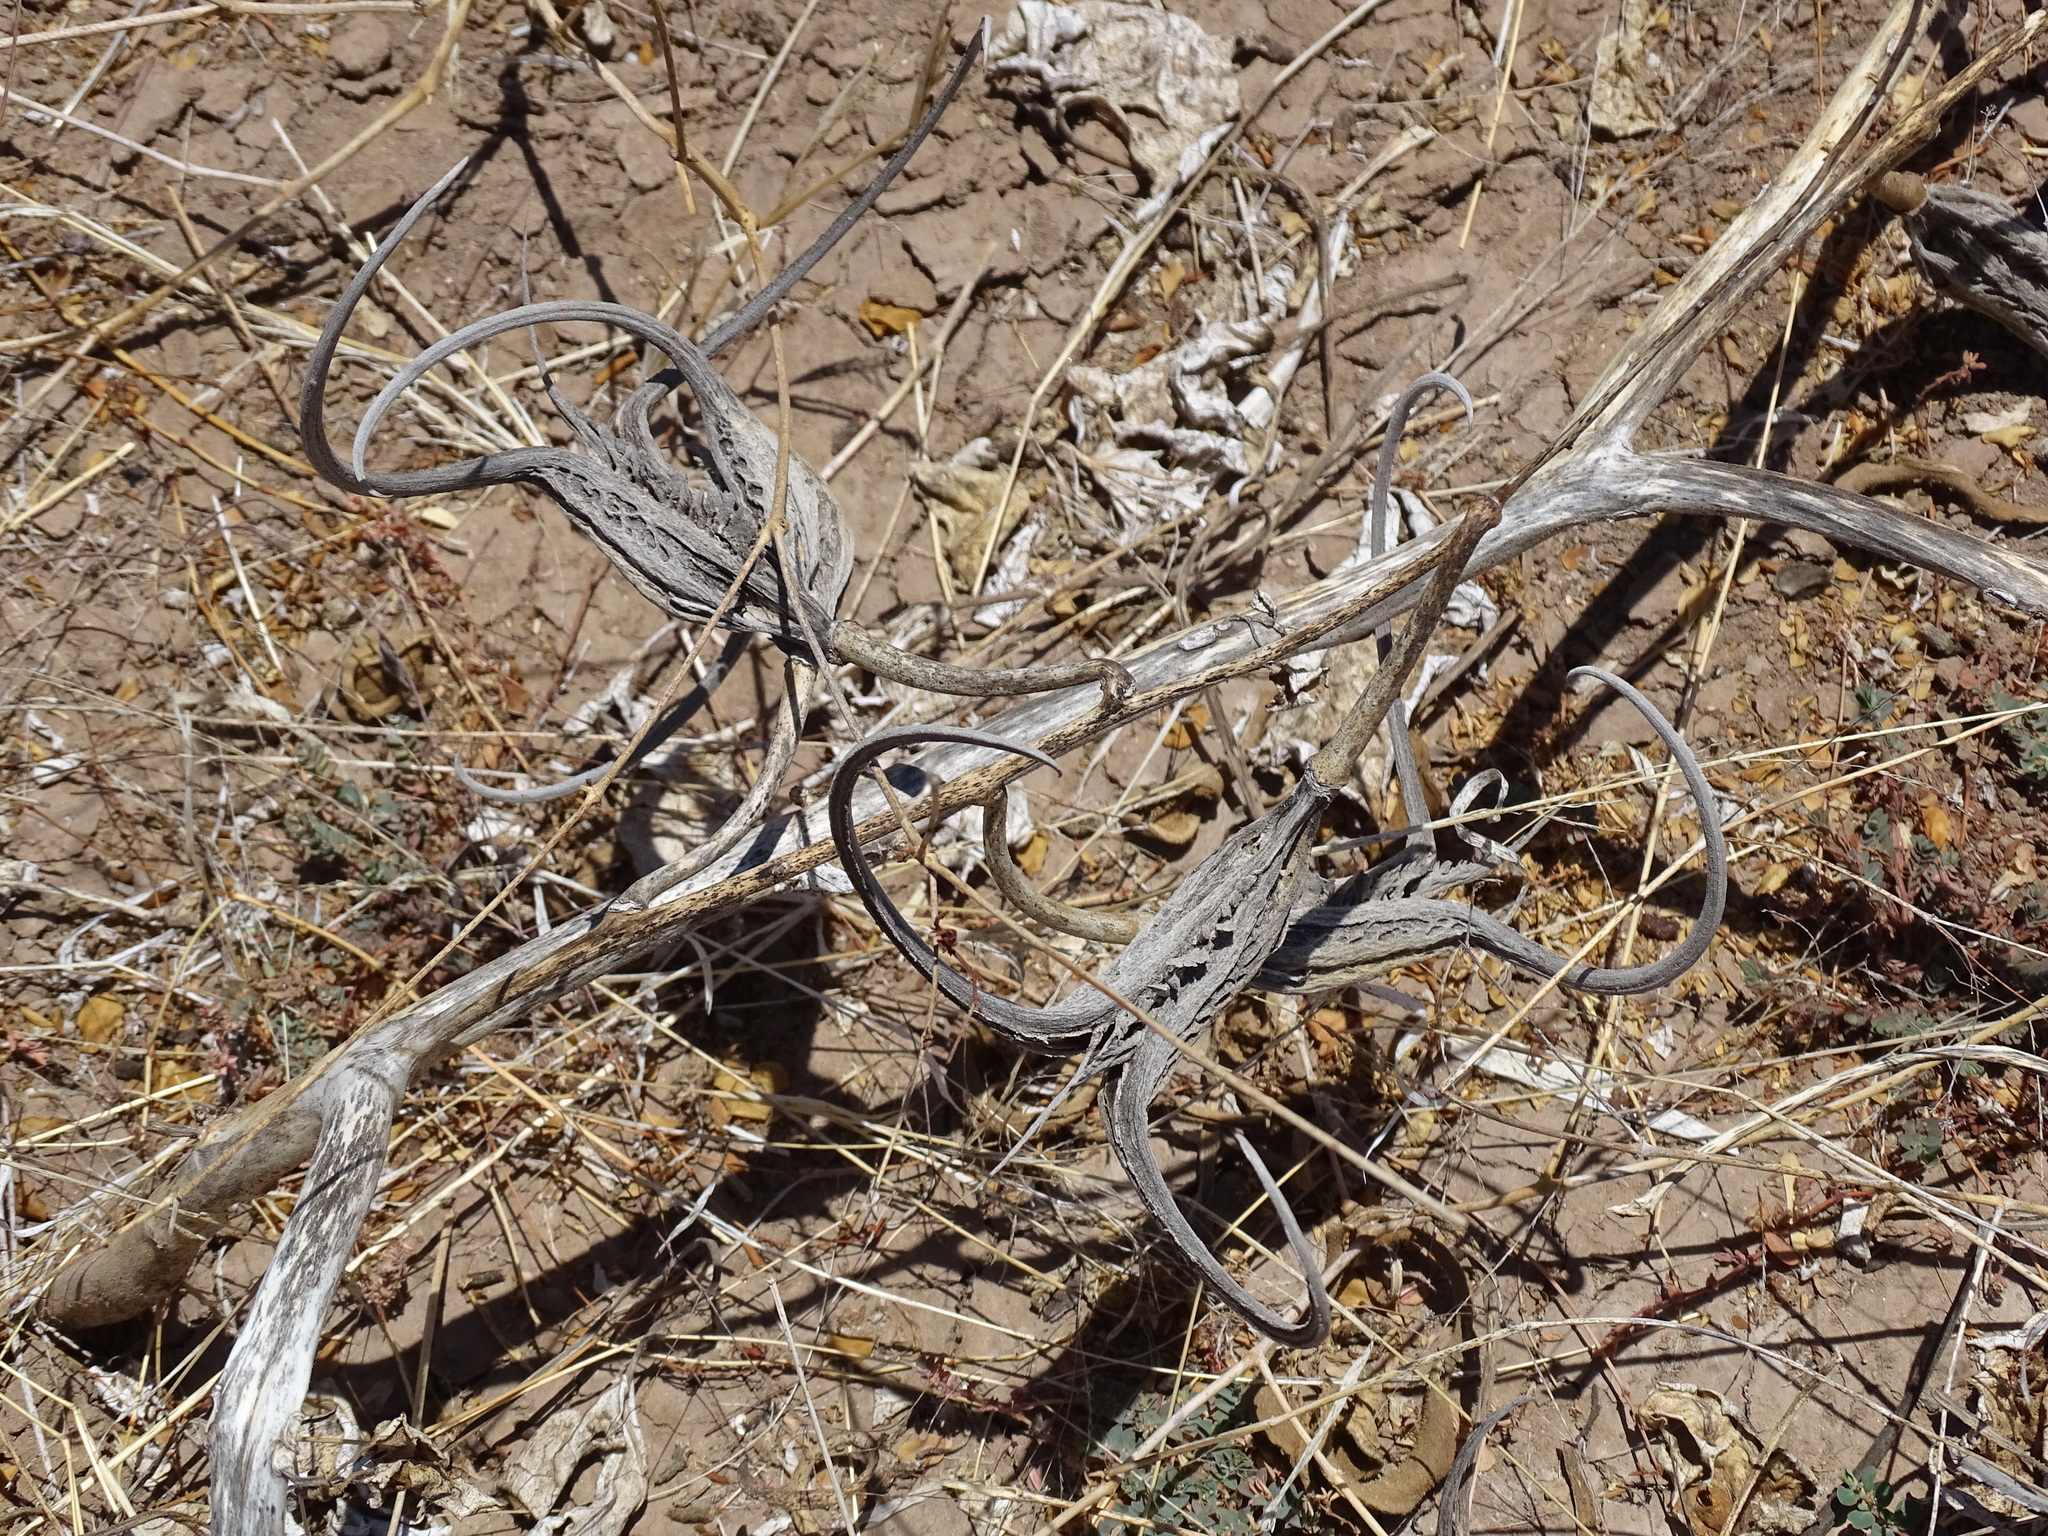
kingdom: Plantae
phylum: Tracheophyta
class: Magnoliopsida
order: Lamiales
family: Martyniaceae
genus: Proboscidea
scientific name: Proboscidea parviflora
